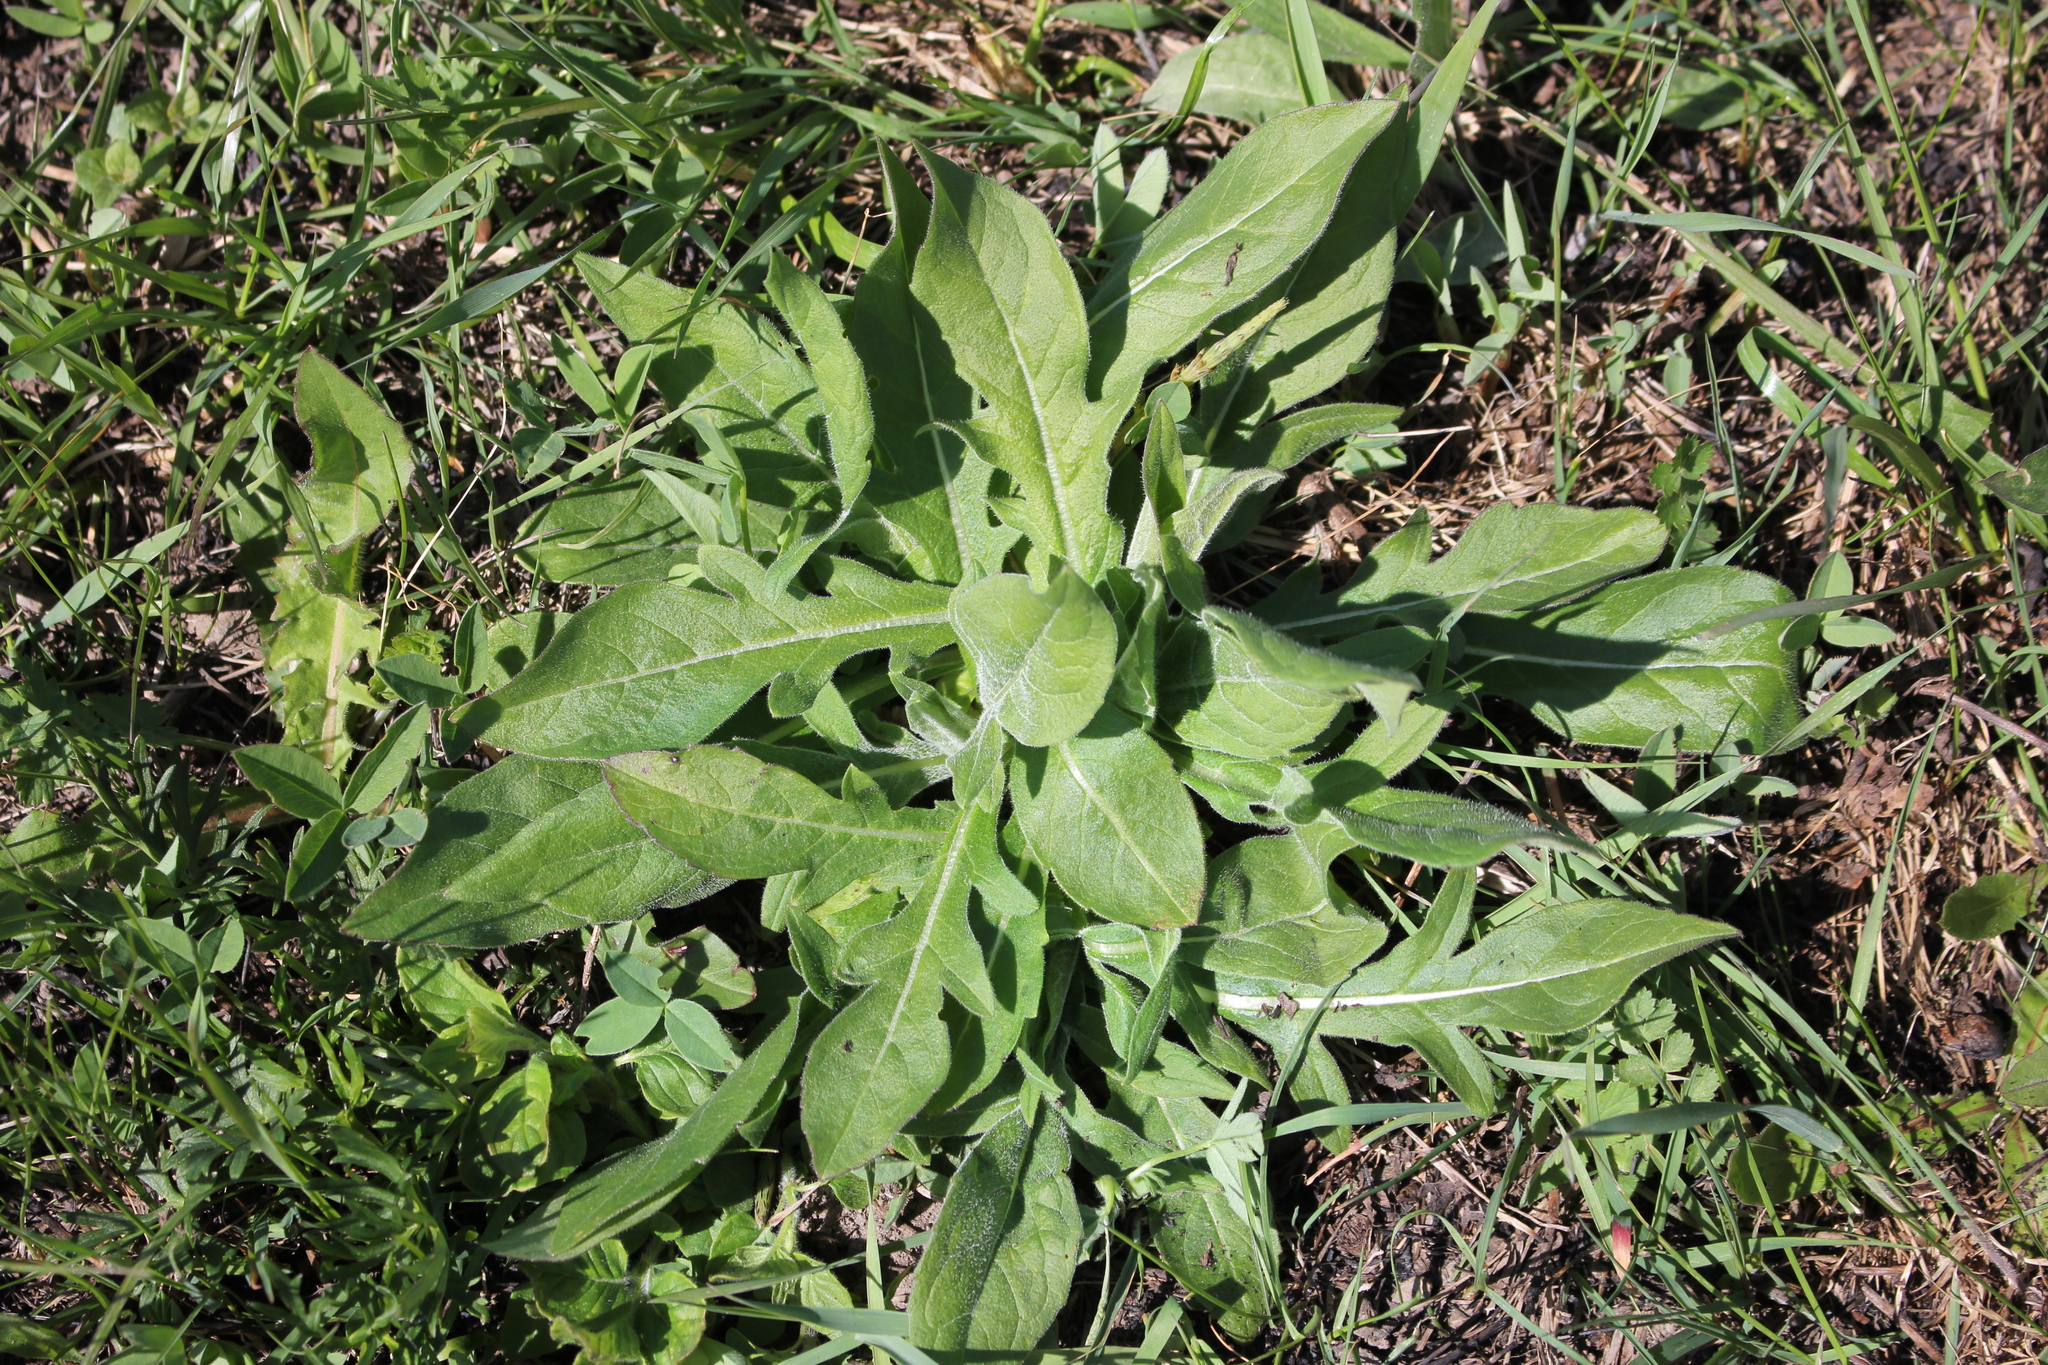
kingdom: Plantae
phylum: Tracheophyta
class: Magnoliopsida
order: Dipsacales
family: Caprifoliaceae
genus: Knautia
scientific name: Knautia arvensis
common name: Field scabiosa
